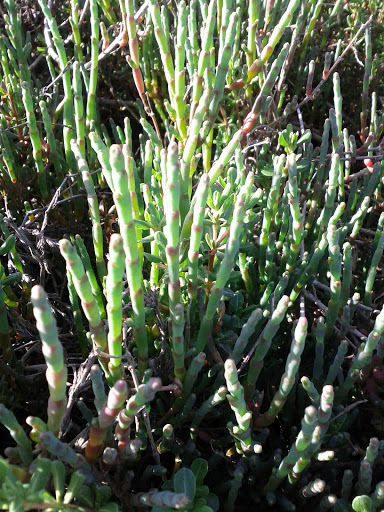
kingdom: Plantae
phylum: Tracheophyta
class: Magnoliopsida
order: Caryophyllales
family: Amaranthaceae
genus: Salicornia
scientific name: Salicornia virginica
